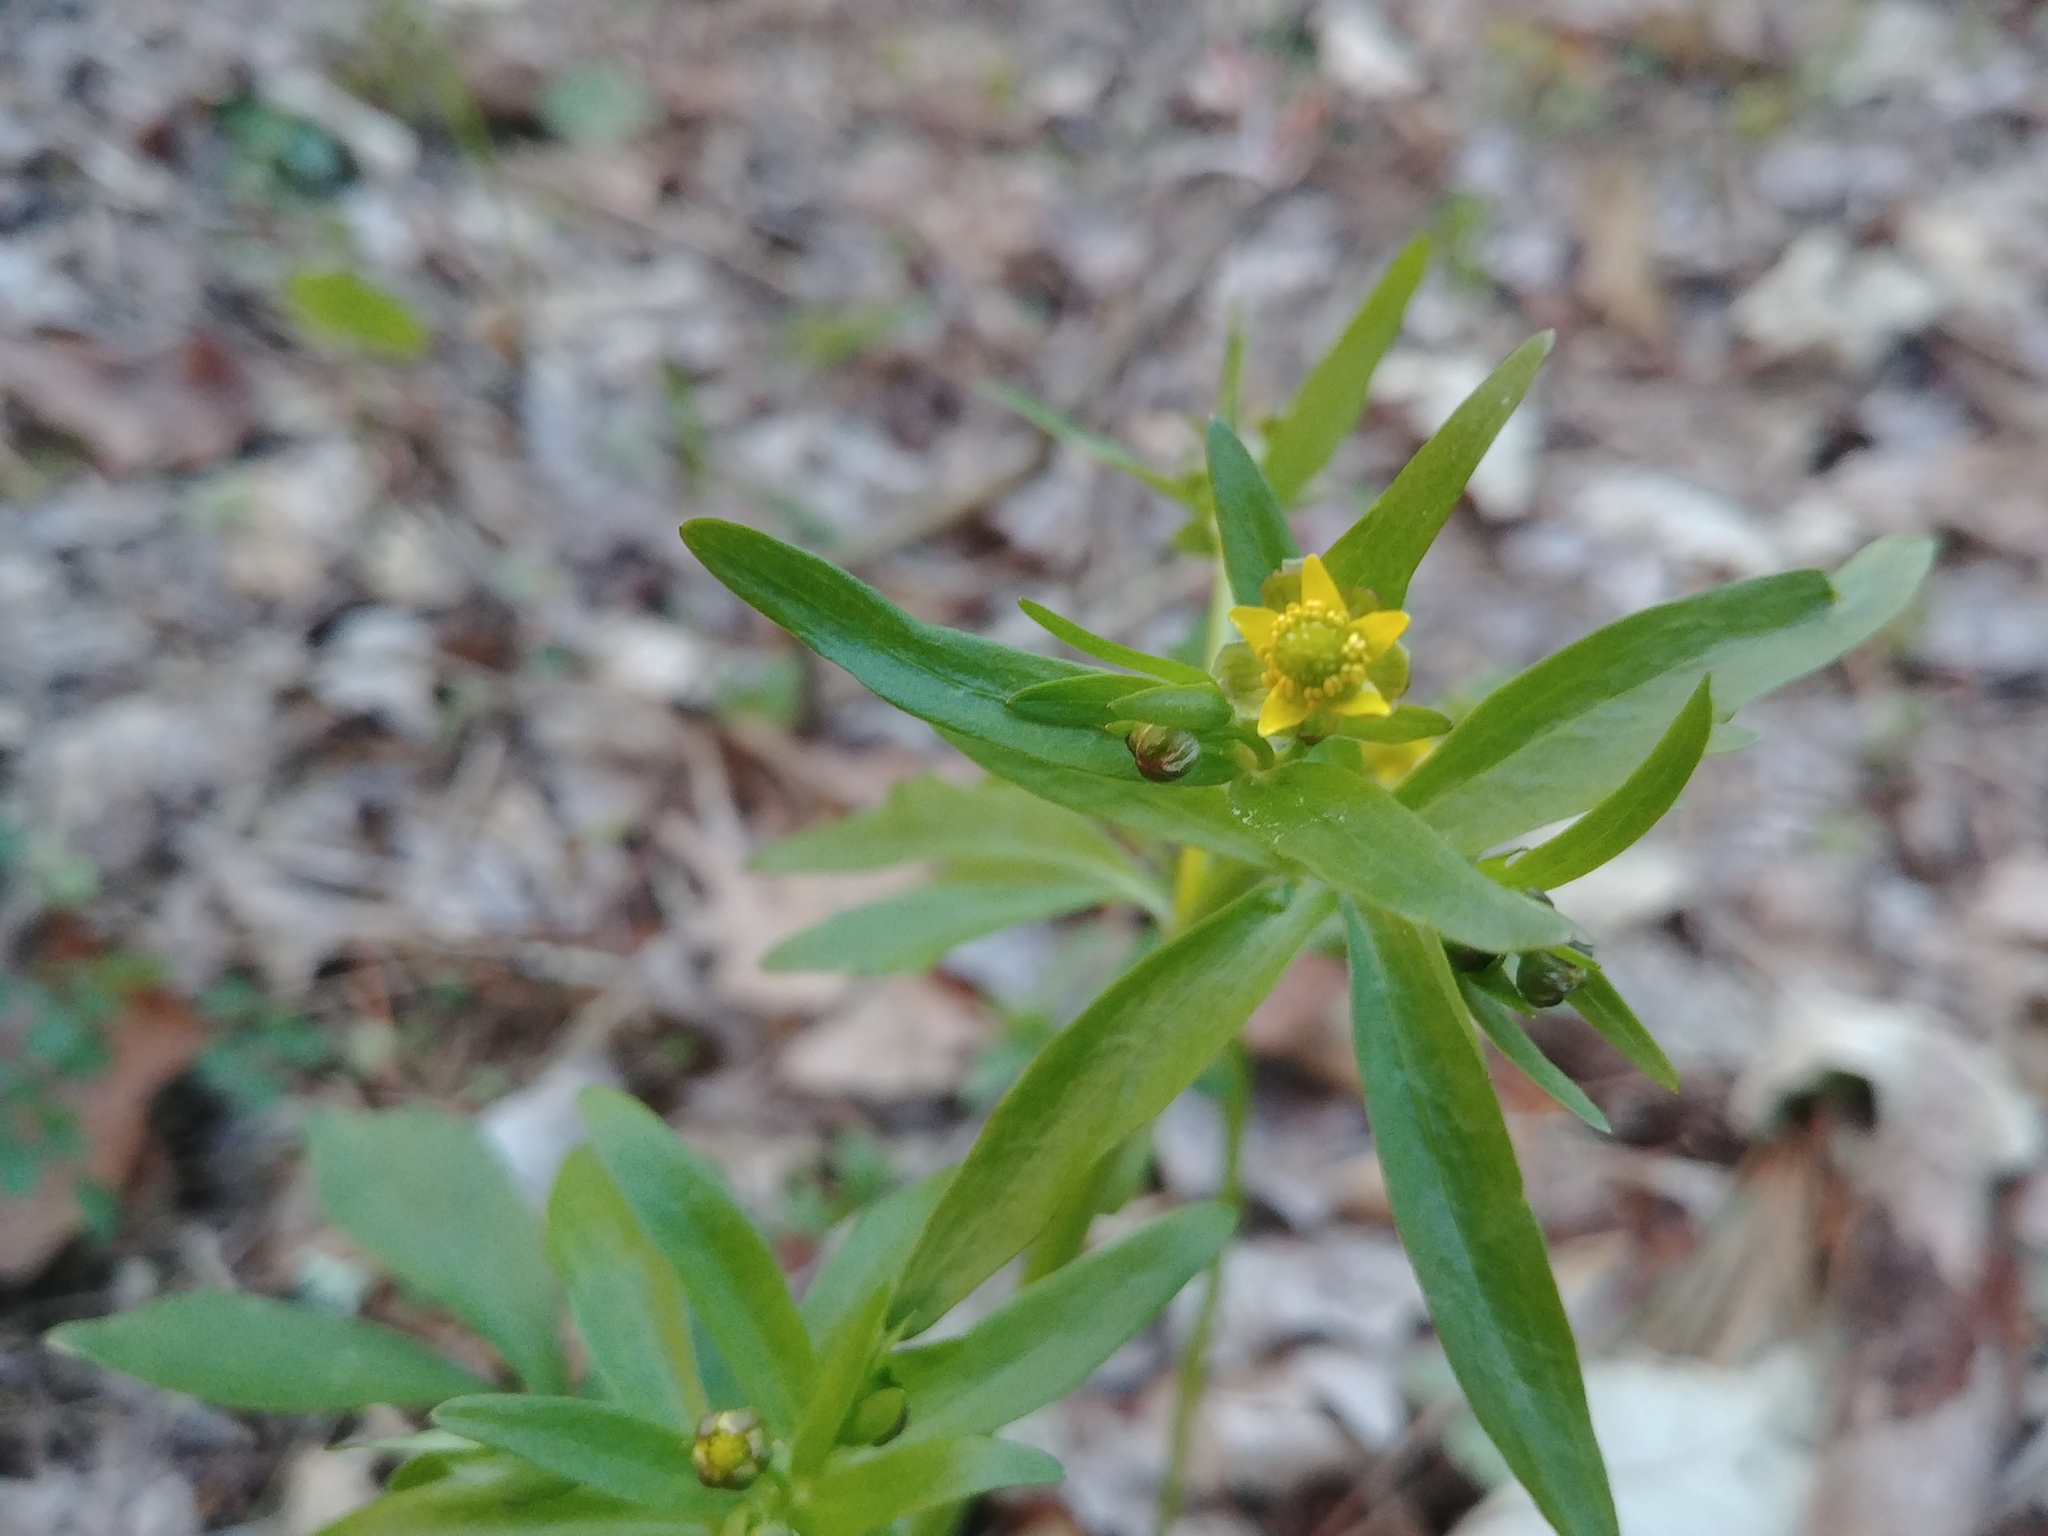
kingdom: Plantae
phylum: Tracheophyta
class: Magnoliopsida
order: Ranunculales
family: Ranunculaceae
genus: Ranunculus
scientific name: Ranunculus abortivus
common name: Early wood buttercup
